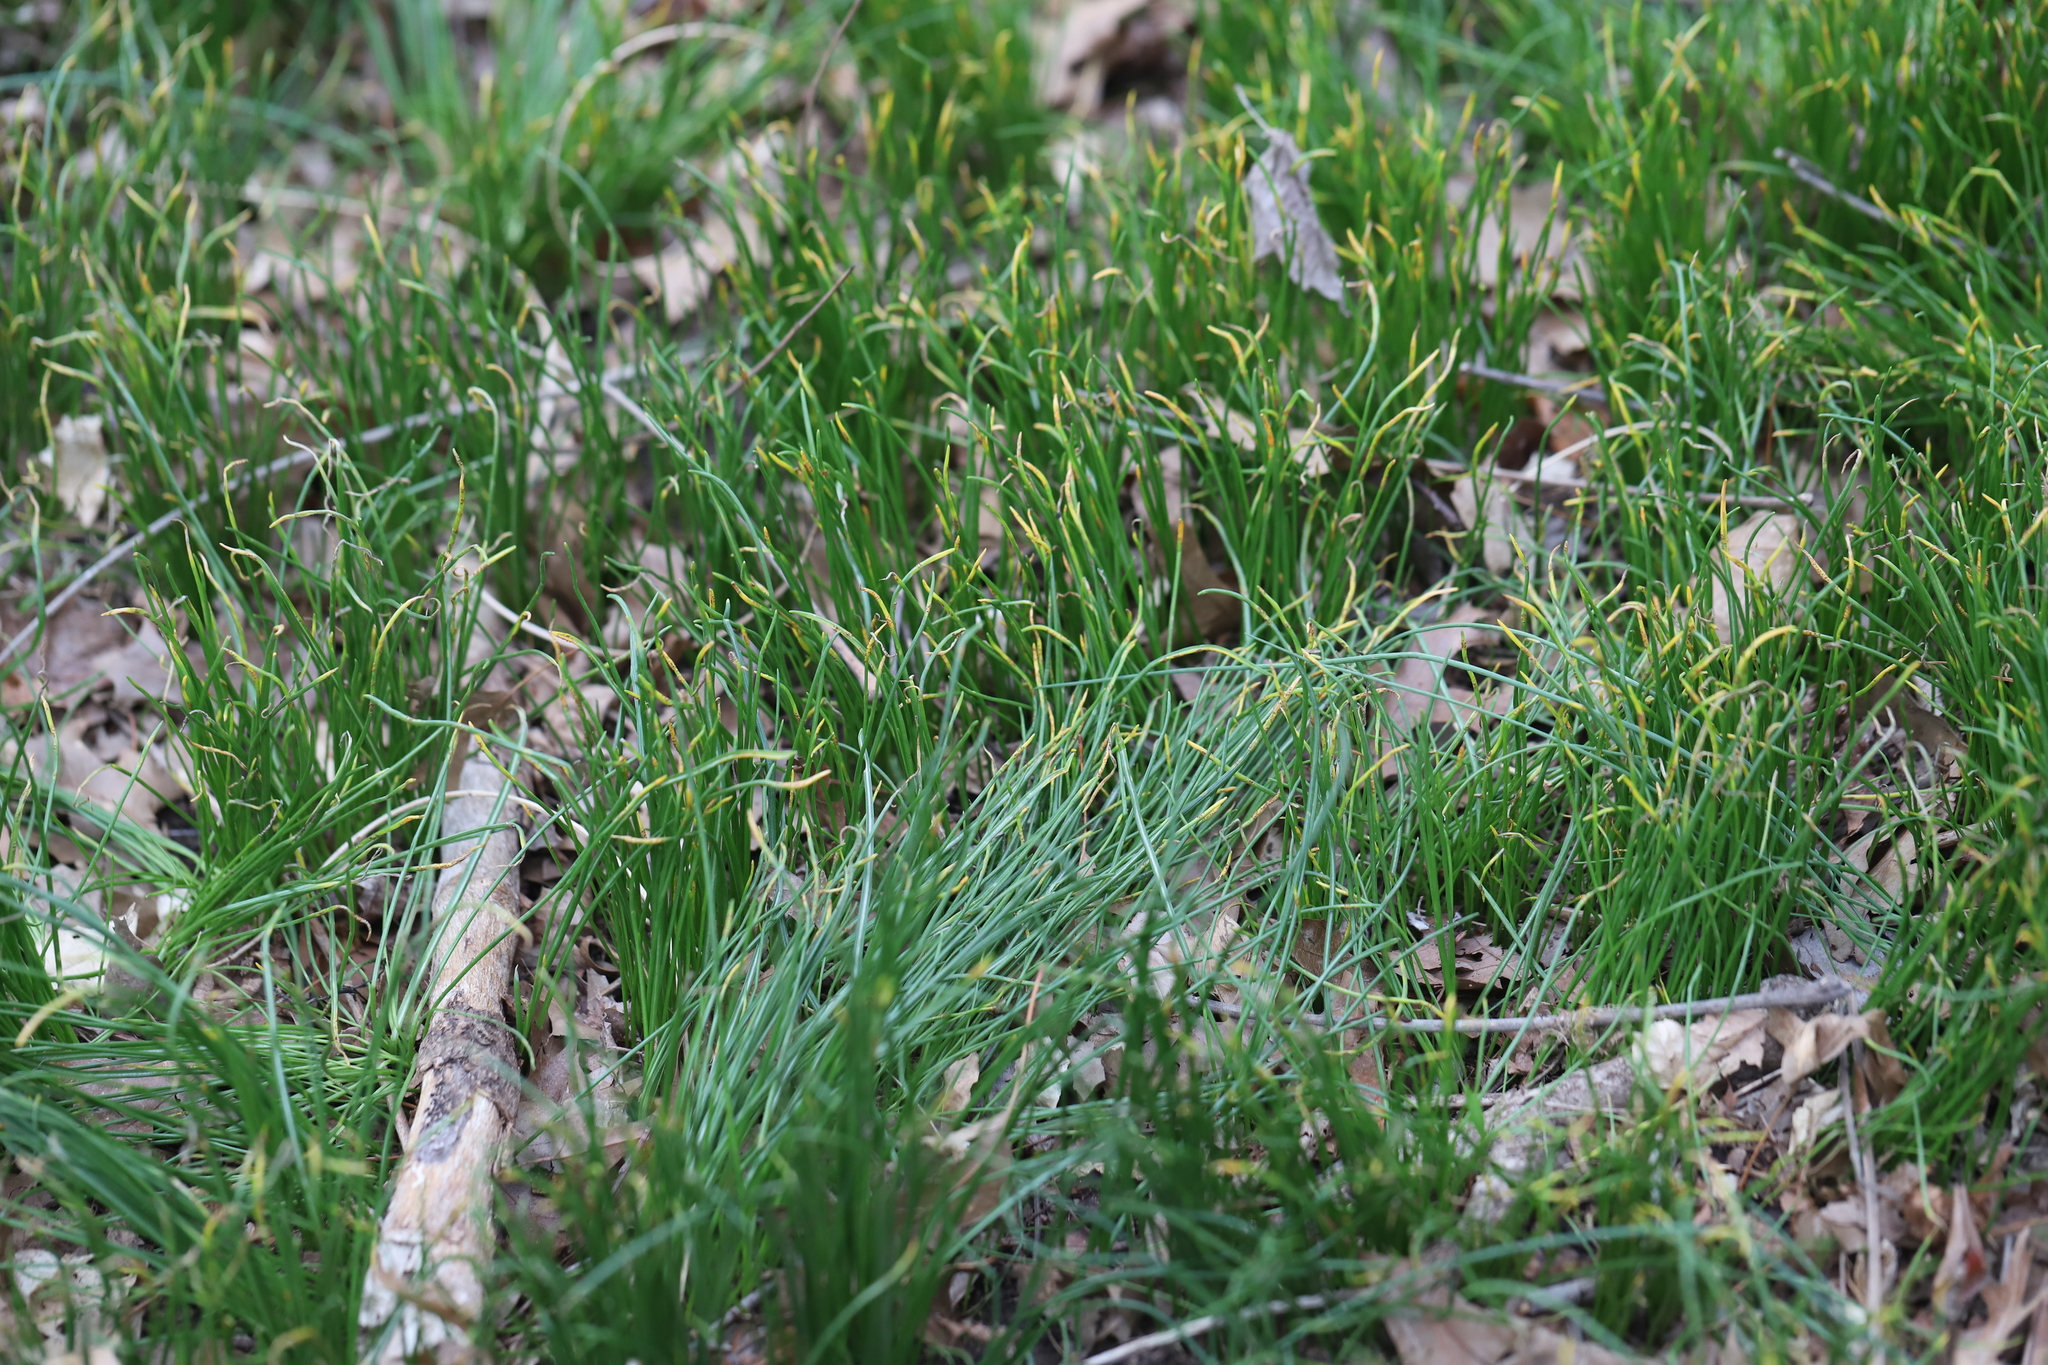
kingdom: Plantae
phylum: Tracheophyta
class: Liliopsida
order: Asparagales
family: Amaryllidaceae
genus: Allium
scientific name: Allium vineale
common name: Crow garlic
